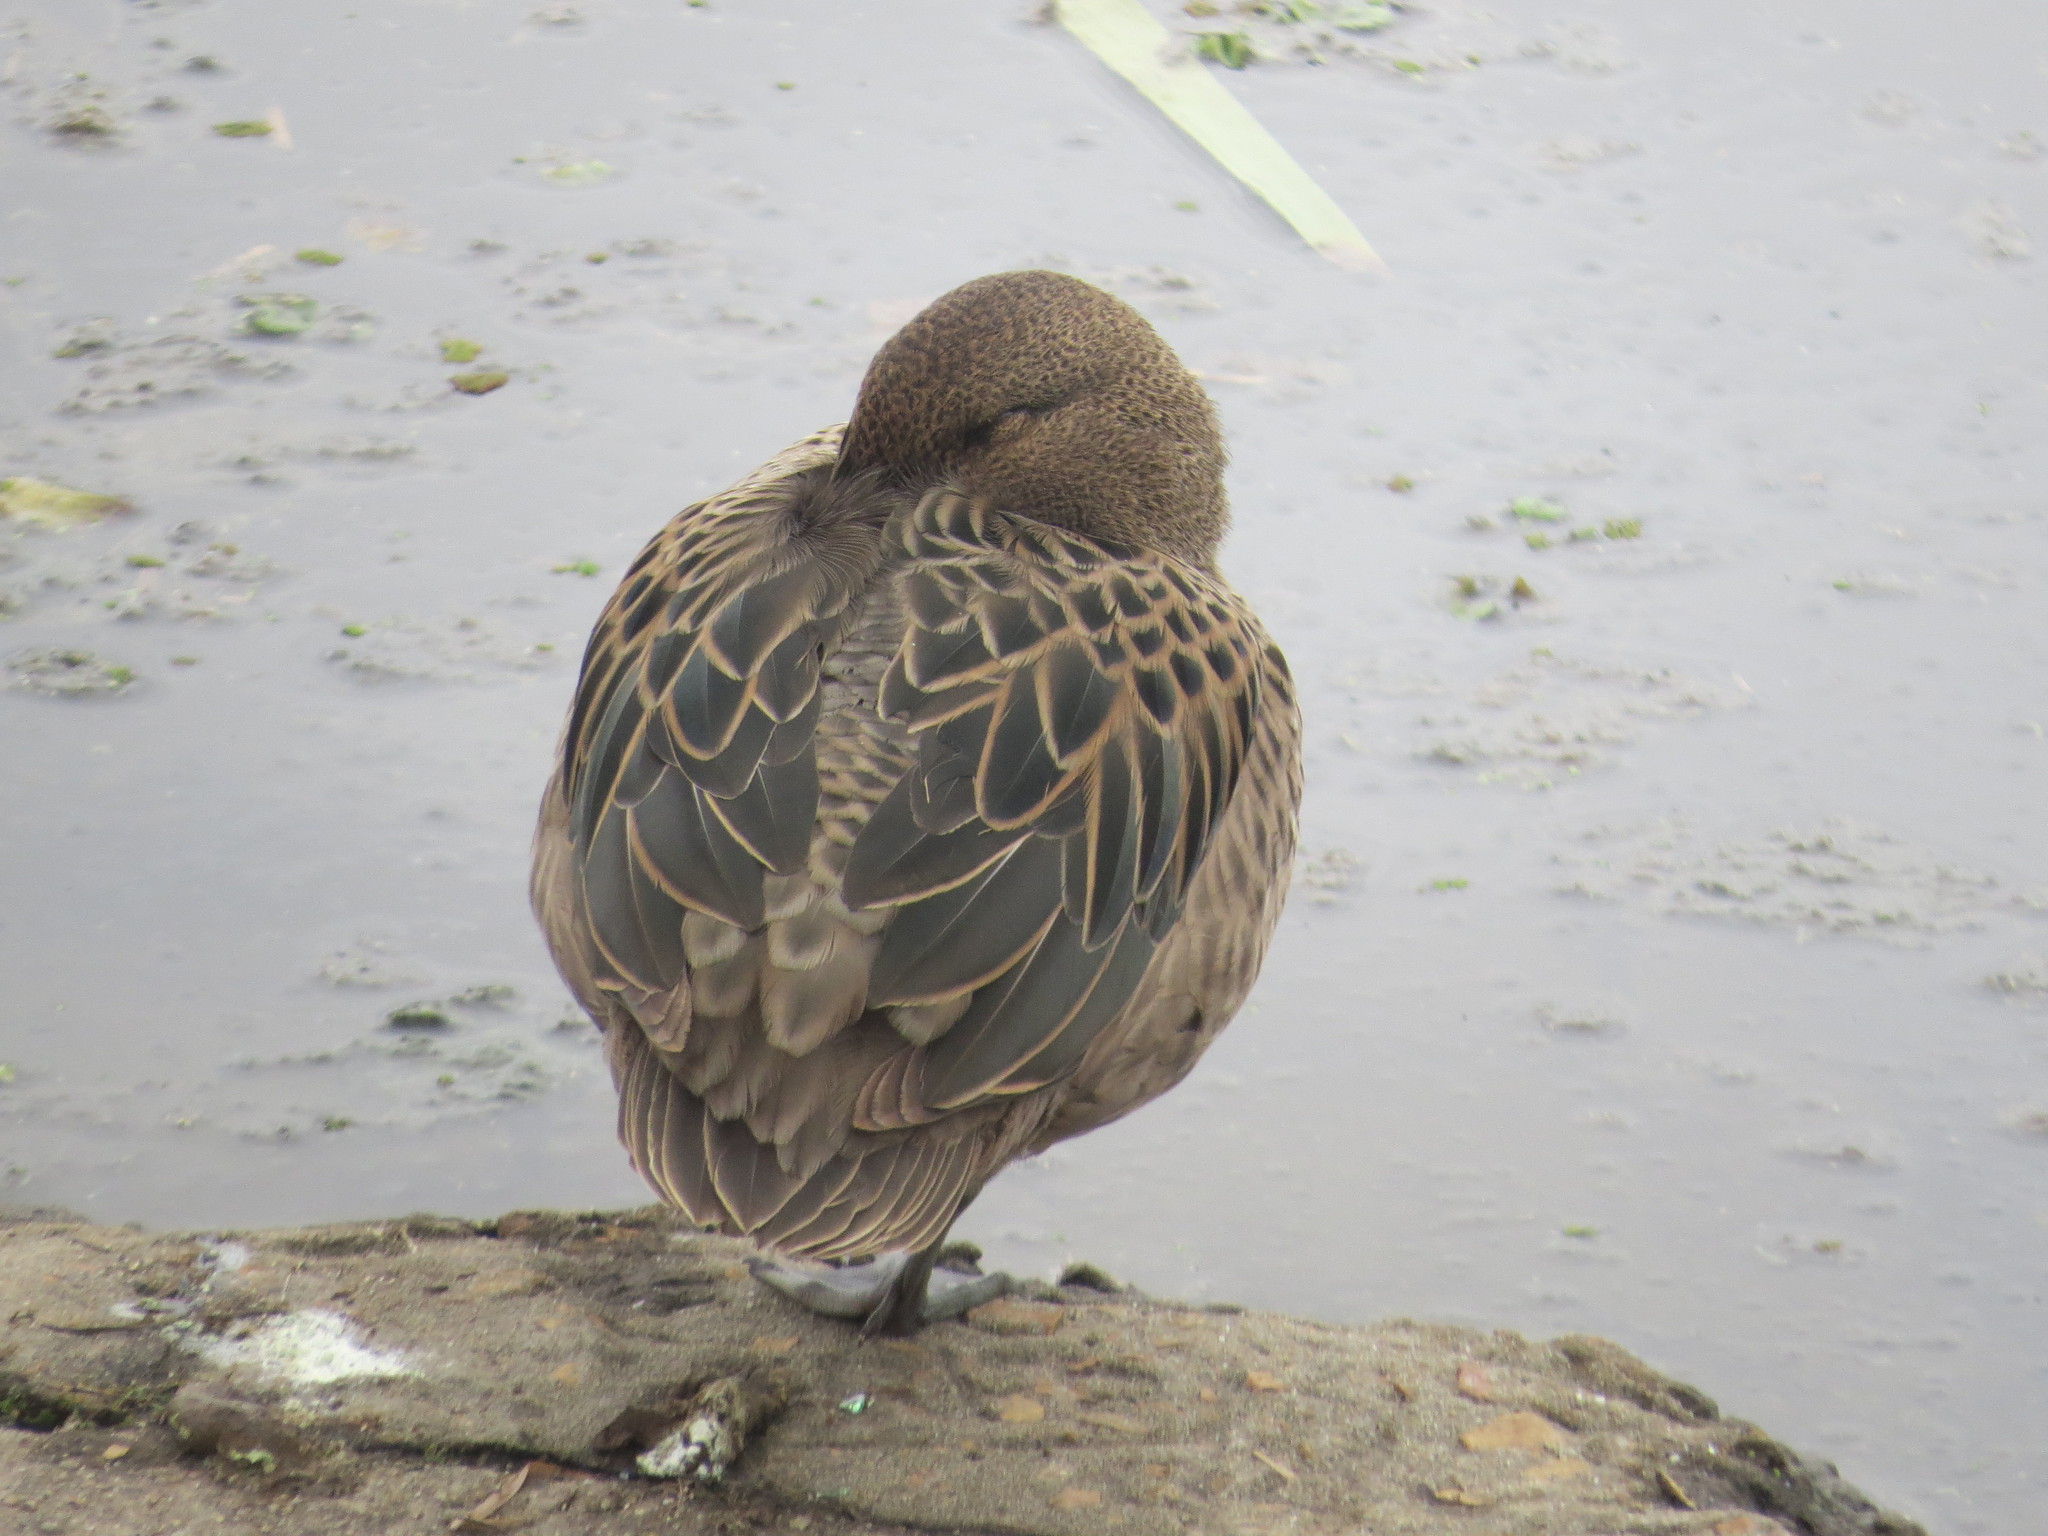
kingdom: Animalia
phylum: Chordata
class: Aves
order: Anseriformes
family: Anatidae
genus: Anas
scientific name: Anas flavirostris
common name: Yellow-billed teal
